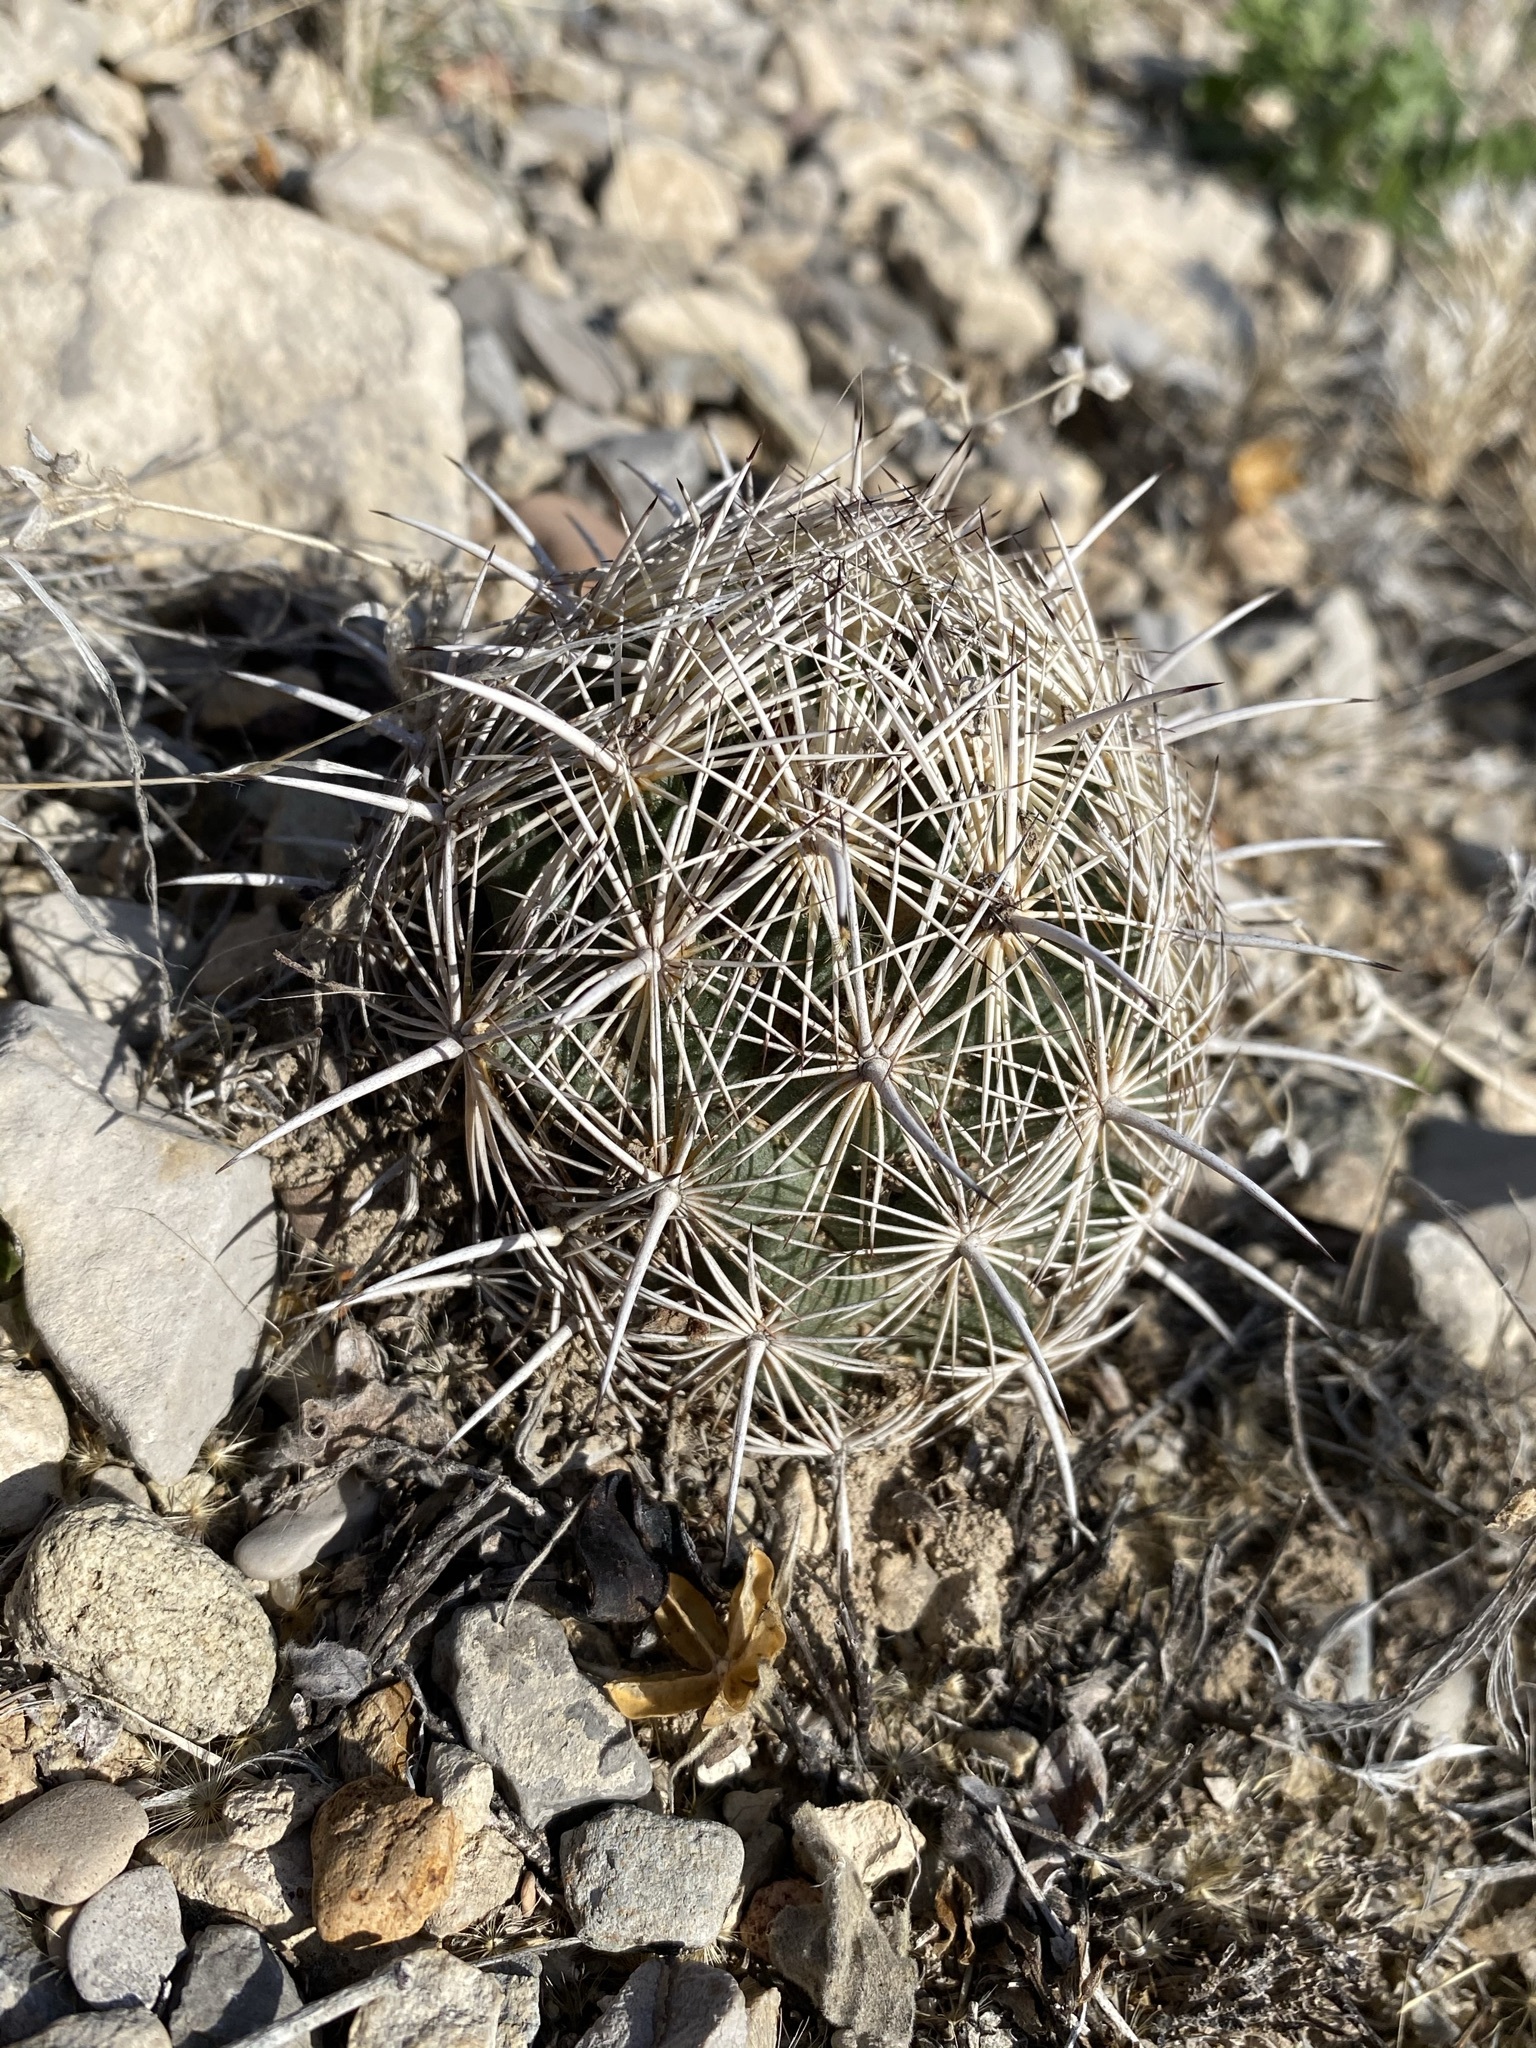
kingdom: Plantae
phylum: Tracheophyta
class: Magnoliopsida
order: Caryophyllales
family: Cactaceae
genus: Coryphantha
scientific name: Coryphantha echinus
